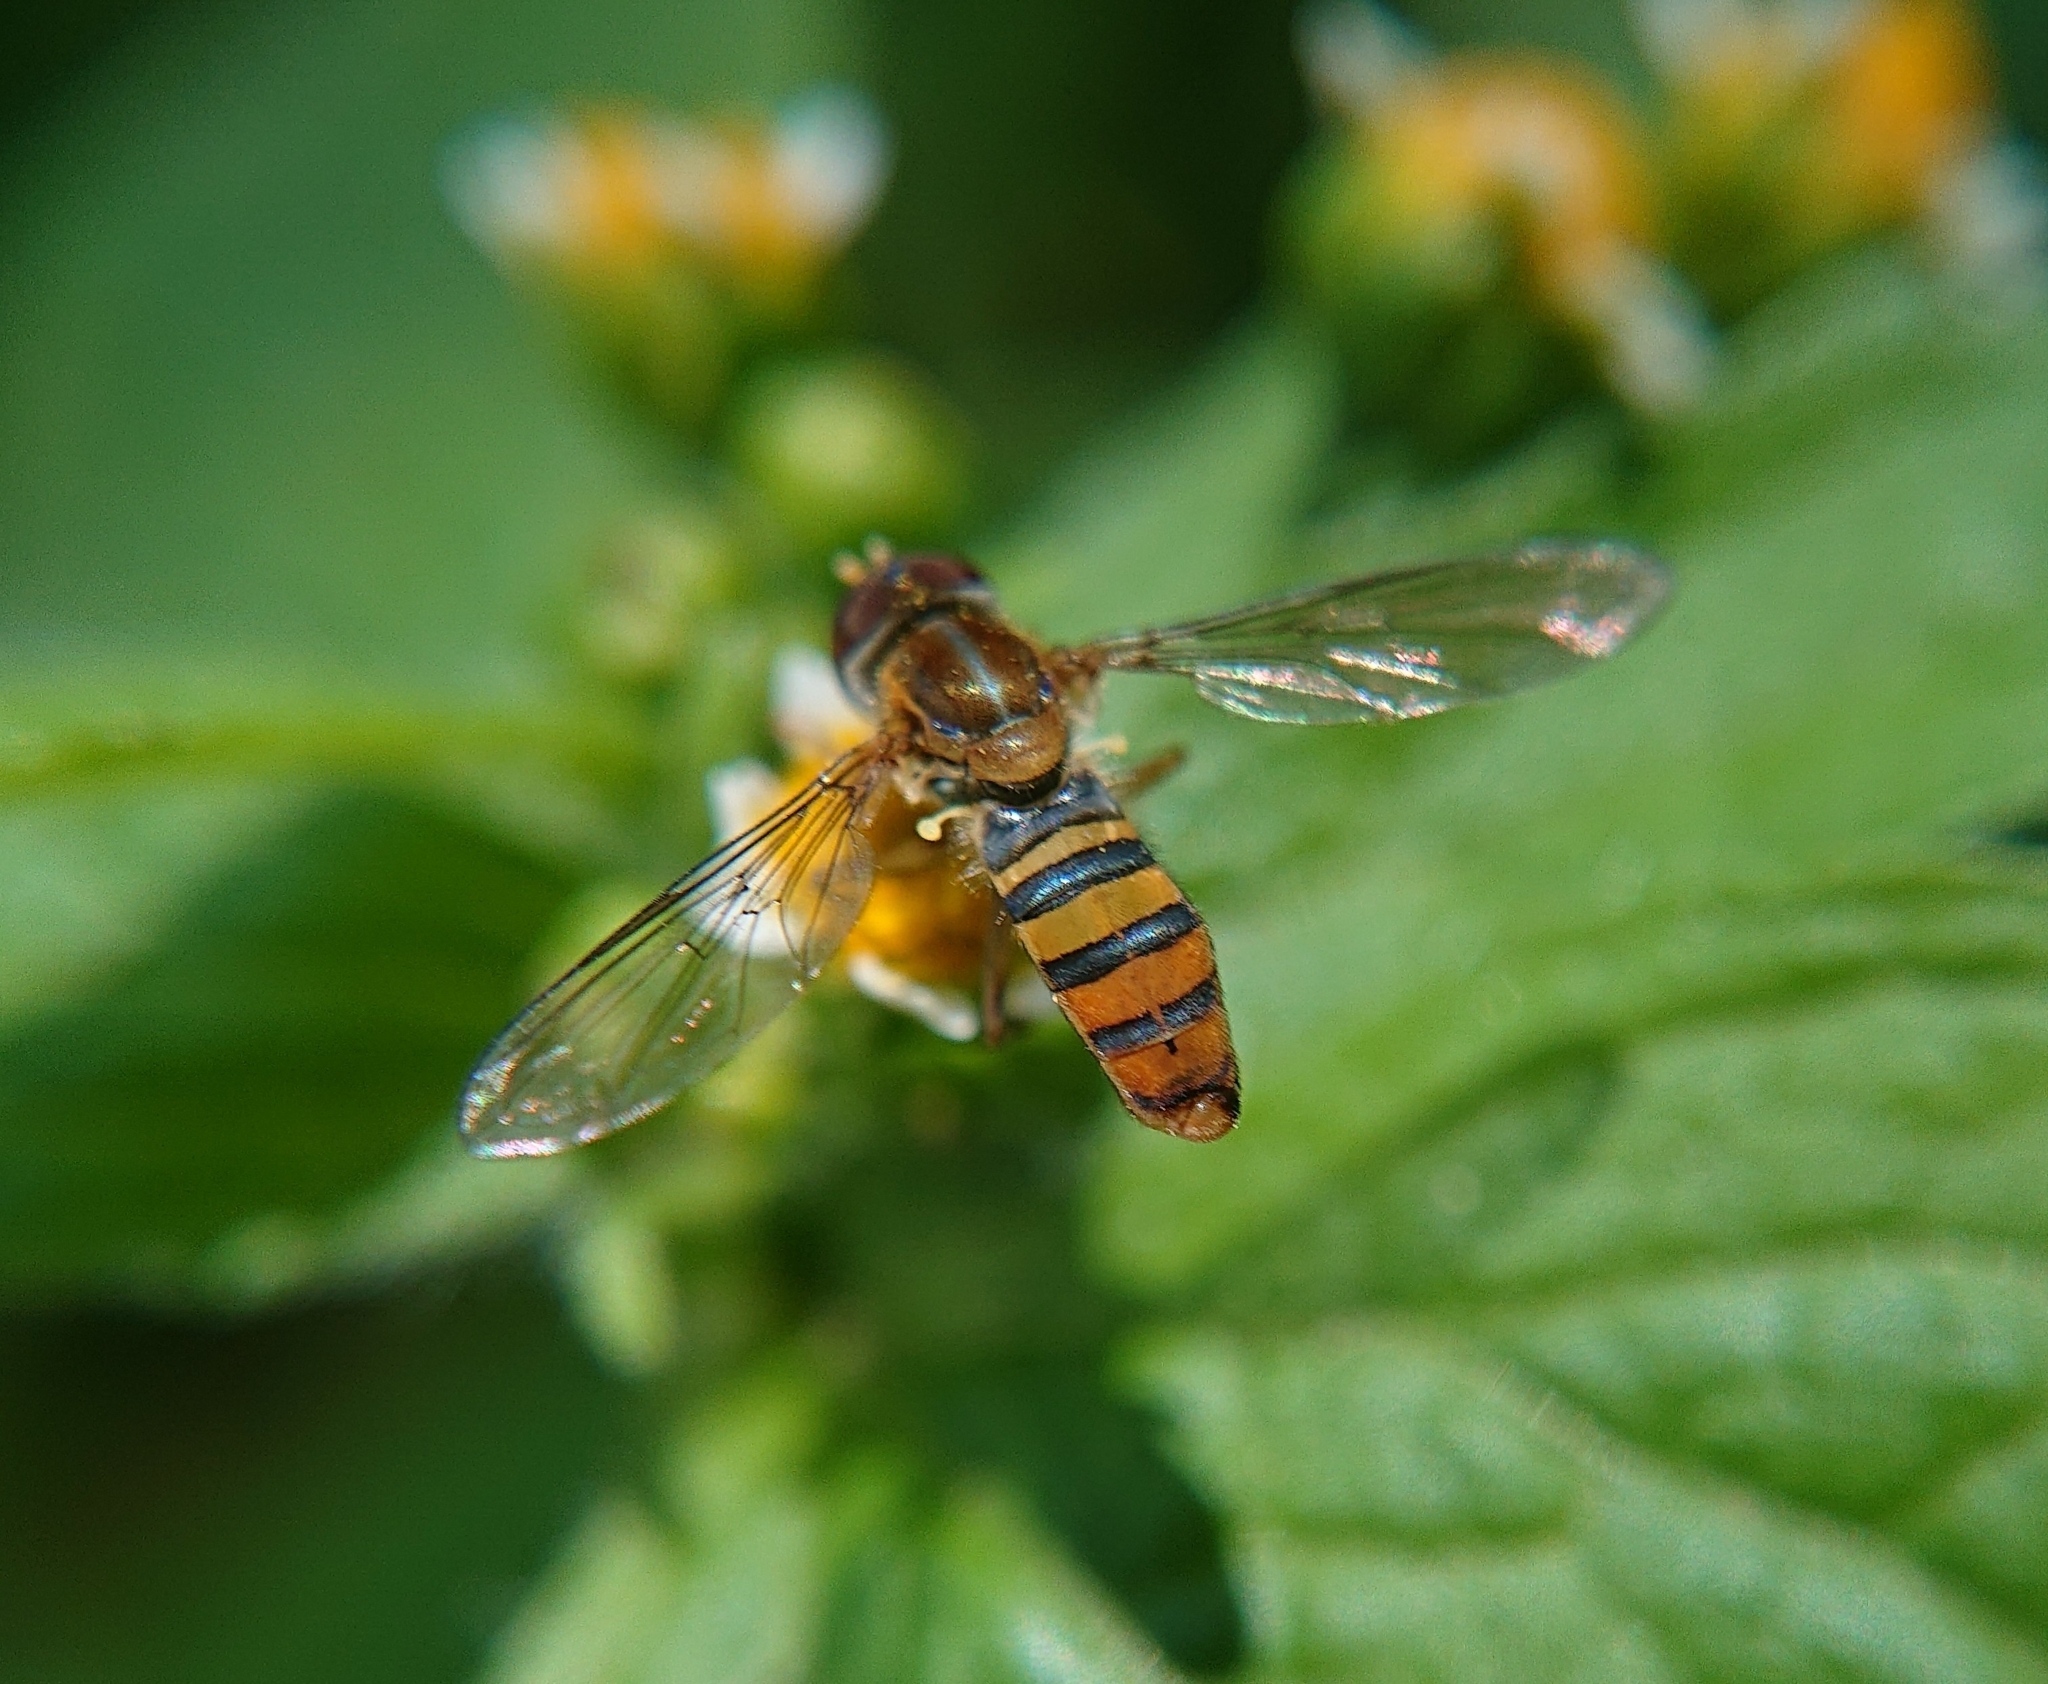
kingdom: Animalia
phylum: Arthropoda
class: Insecta
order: Diptera
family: Syrphidae
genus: Toxomerus
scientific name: Toxomerus ecuadoreus
